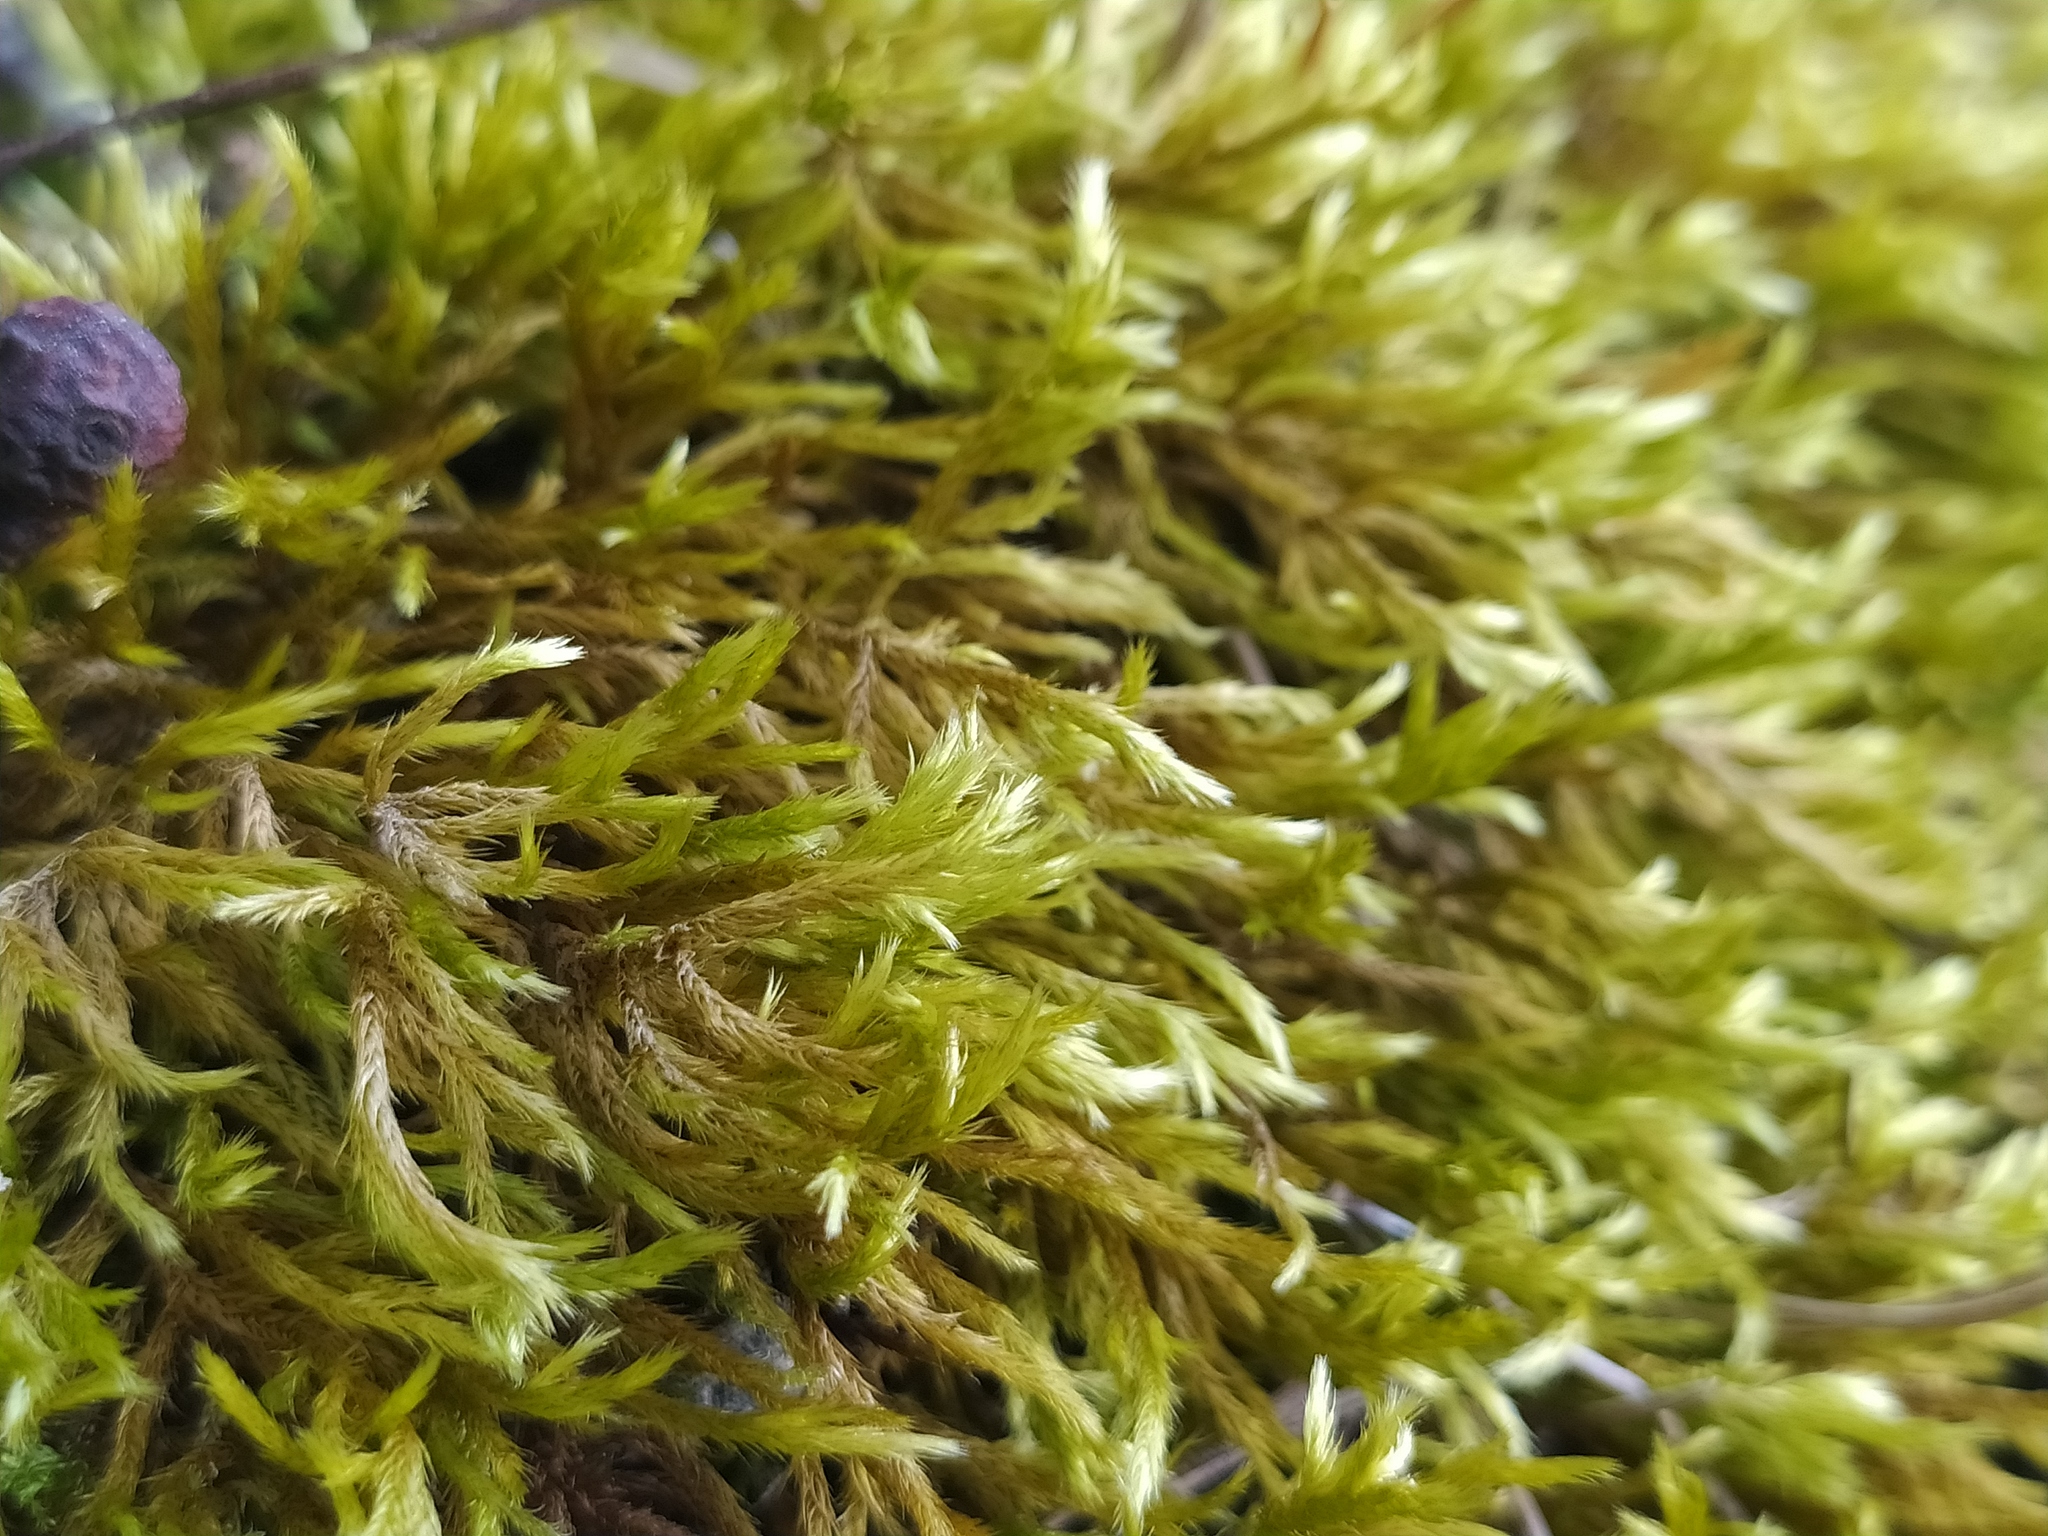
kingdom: Plantae
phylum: Bryophyta
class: Bryopsida
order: Hypnales
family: Brachytheciaceae
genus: Homalothecium
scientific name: Homalothecium lutescens
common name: Yellow feather-moss
